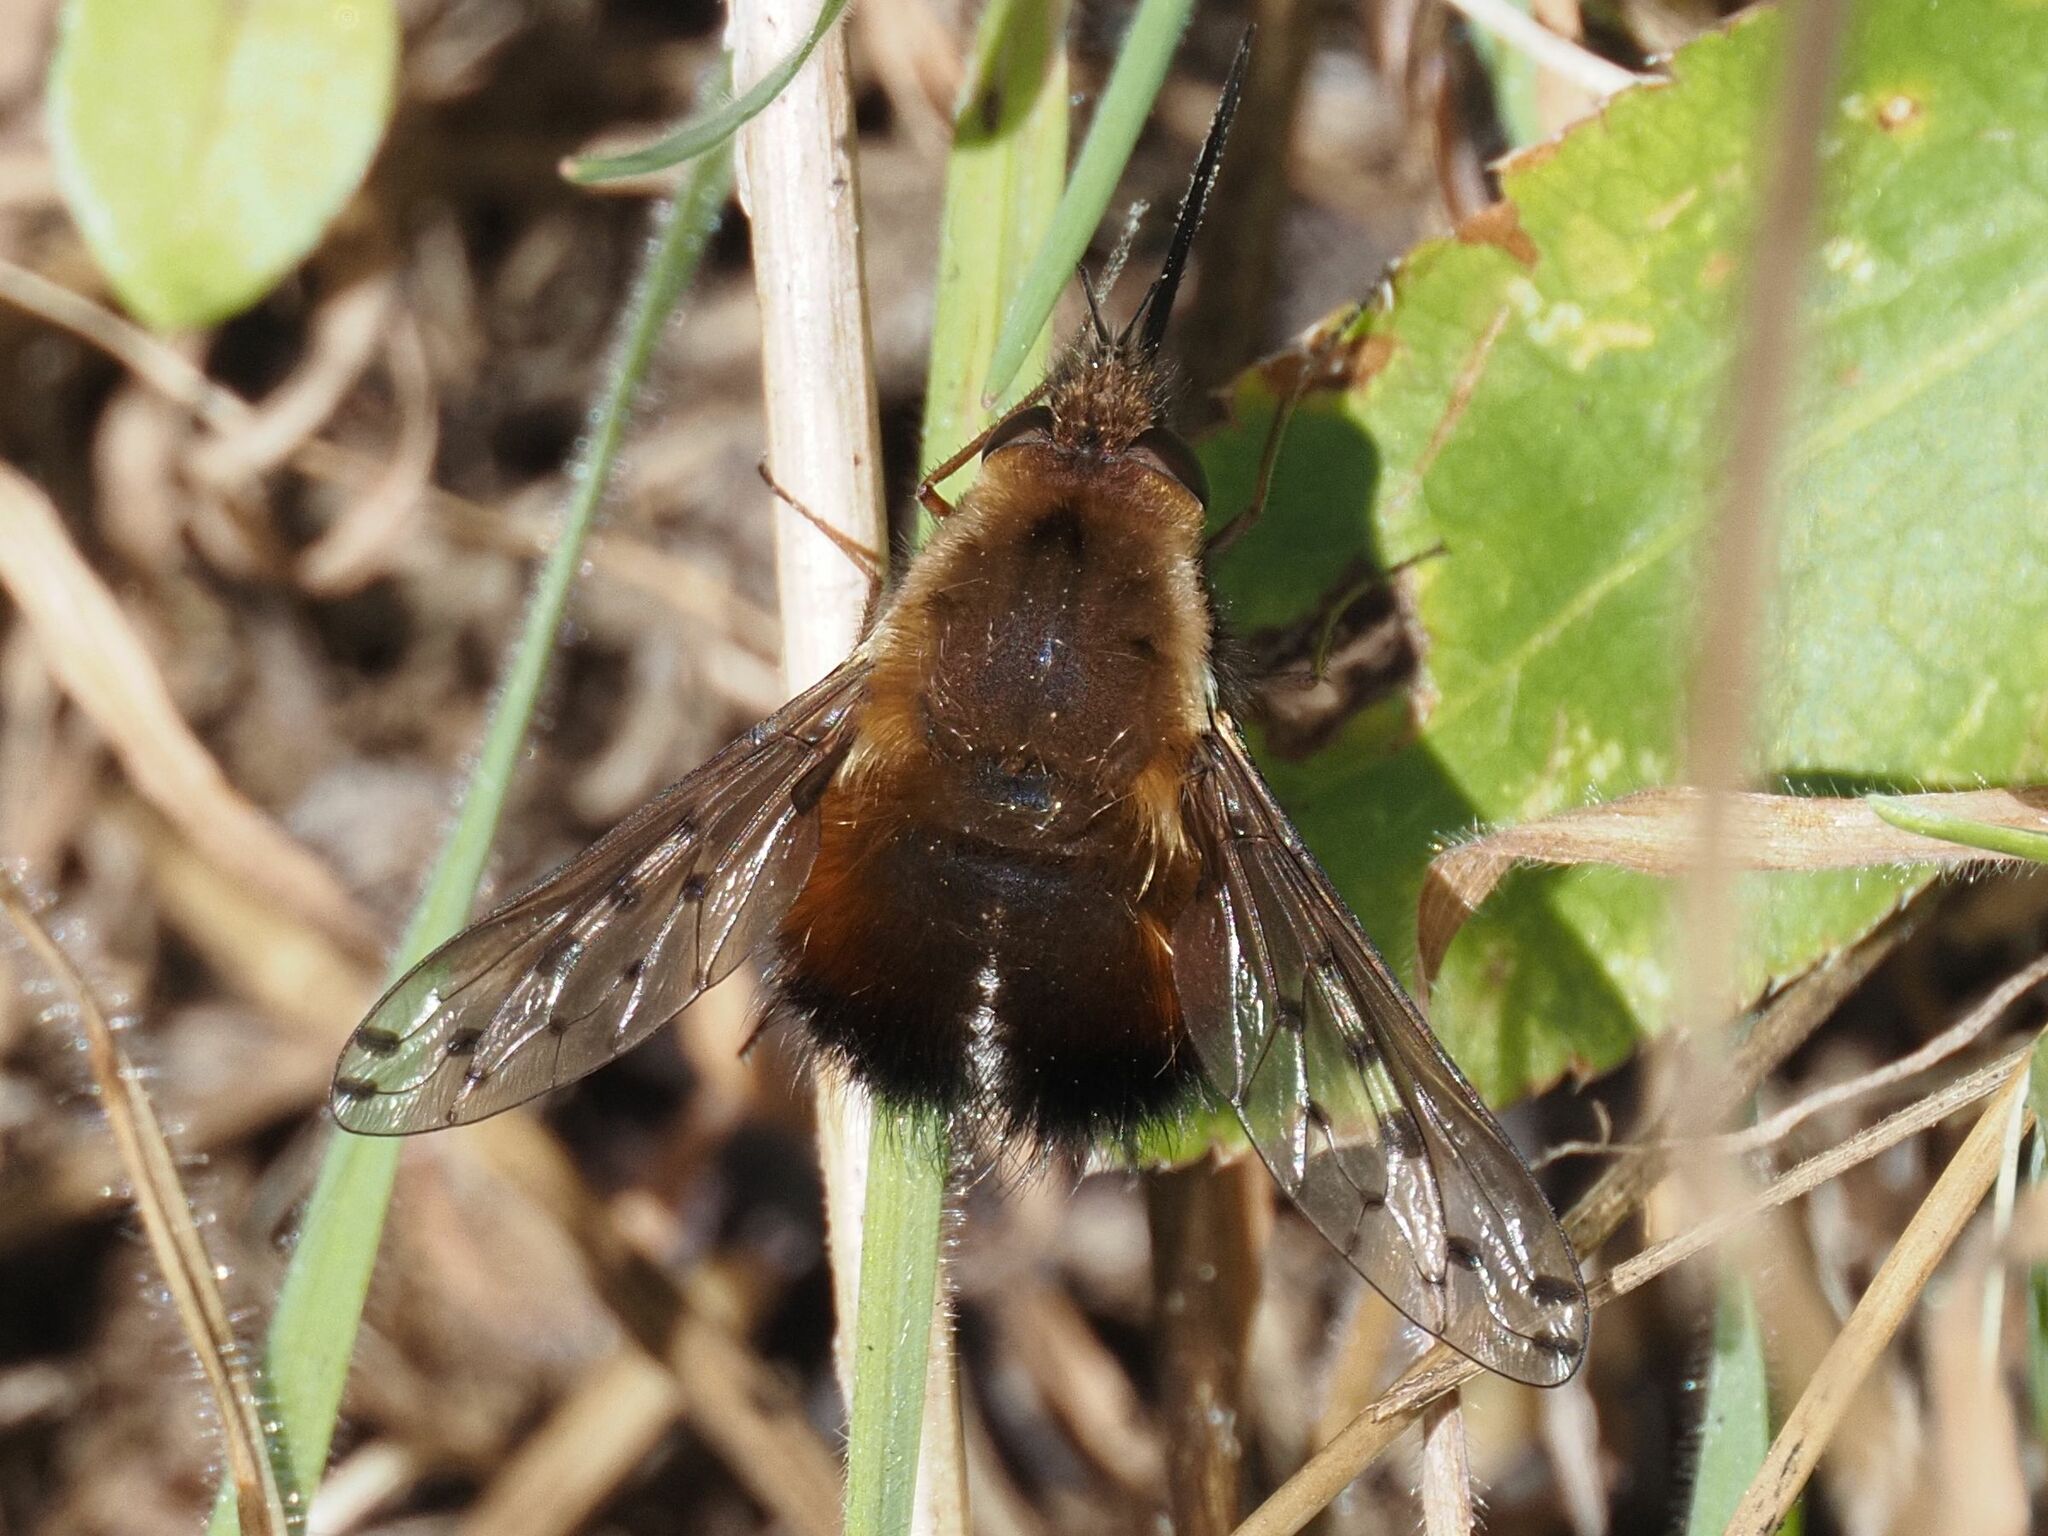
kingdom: Animalia
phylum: Arthropoda
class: Insecta
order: Diptera
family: Bombyliidae
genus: Bombylius
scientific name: Bombylius discolor
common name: Dotted bee-fly
